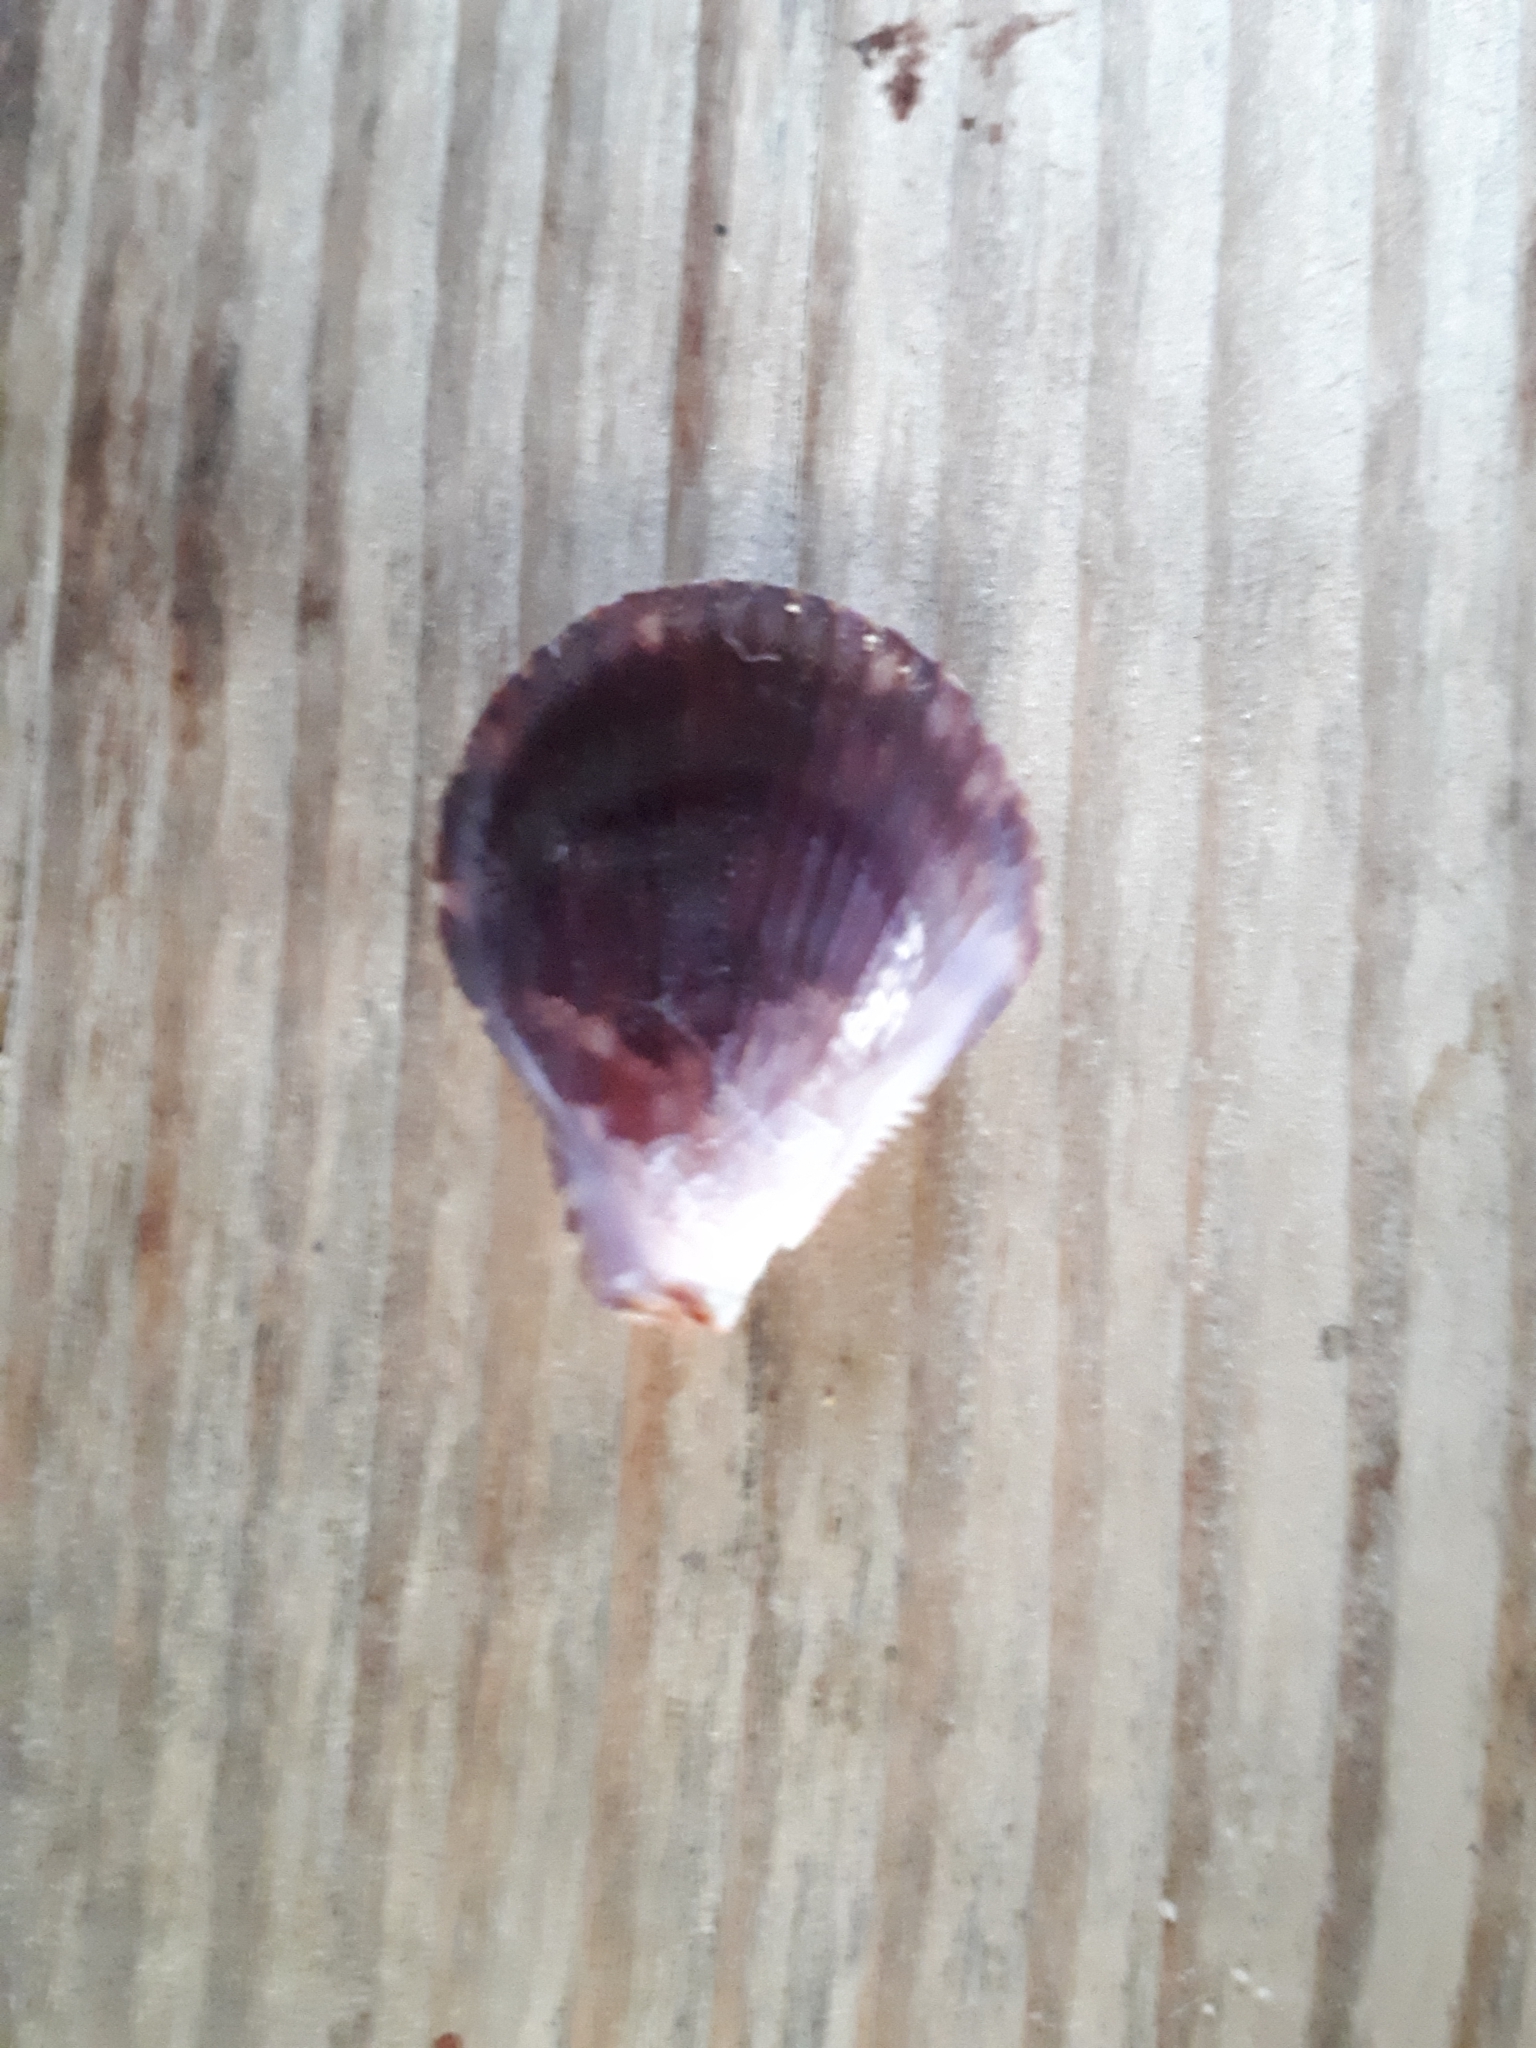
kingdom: Animalia
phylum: Mollusca
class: Bivalvia
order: Pectinida
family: Pectinidae
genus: Mimachlamys
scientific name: Mimachlamys varia
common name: Variegated scallop
